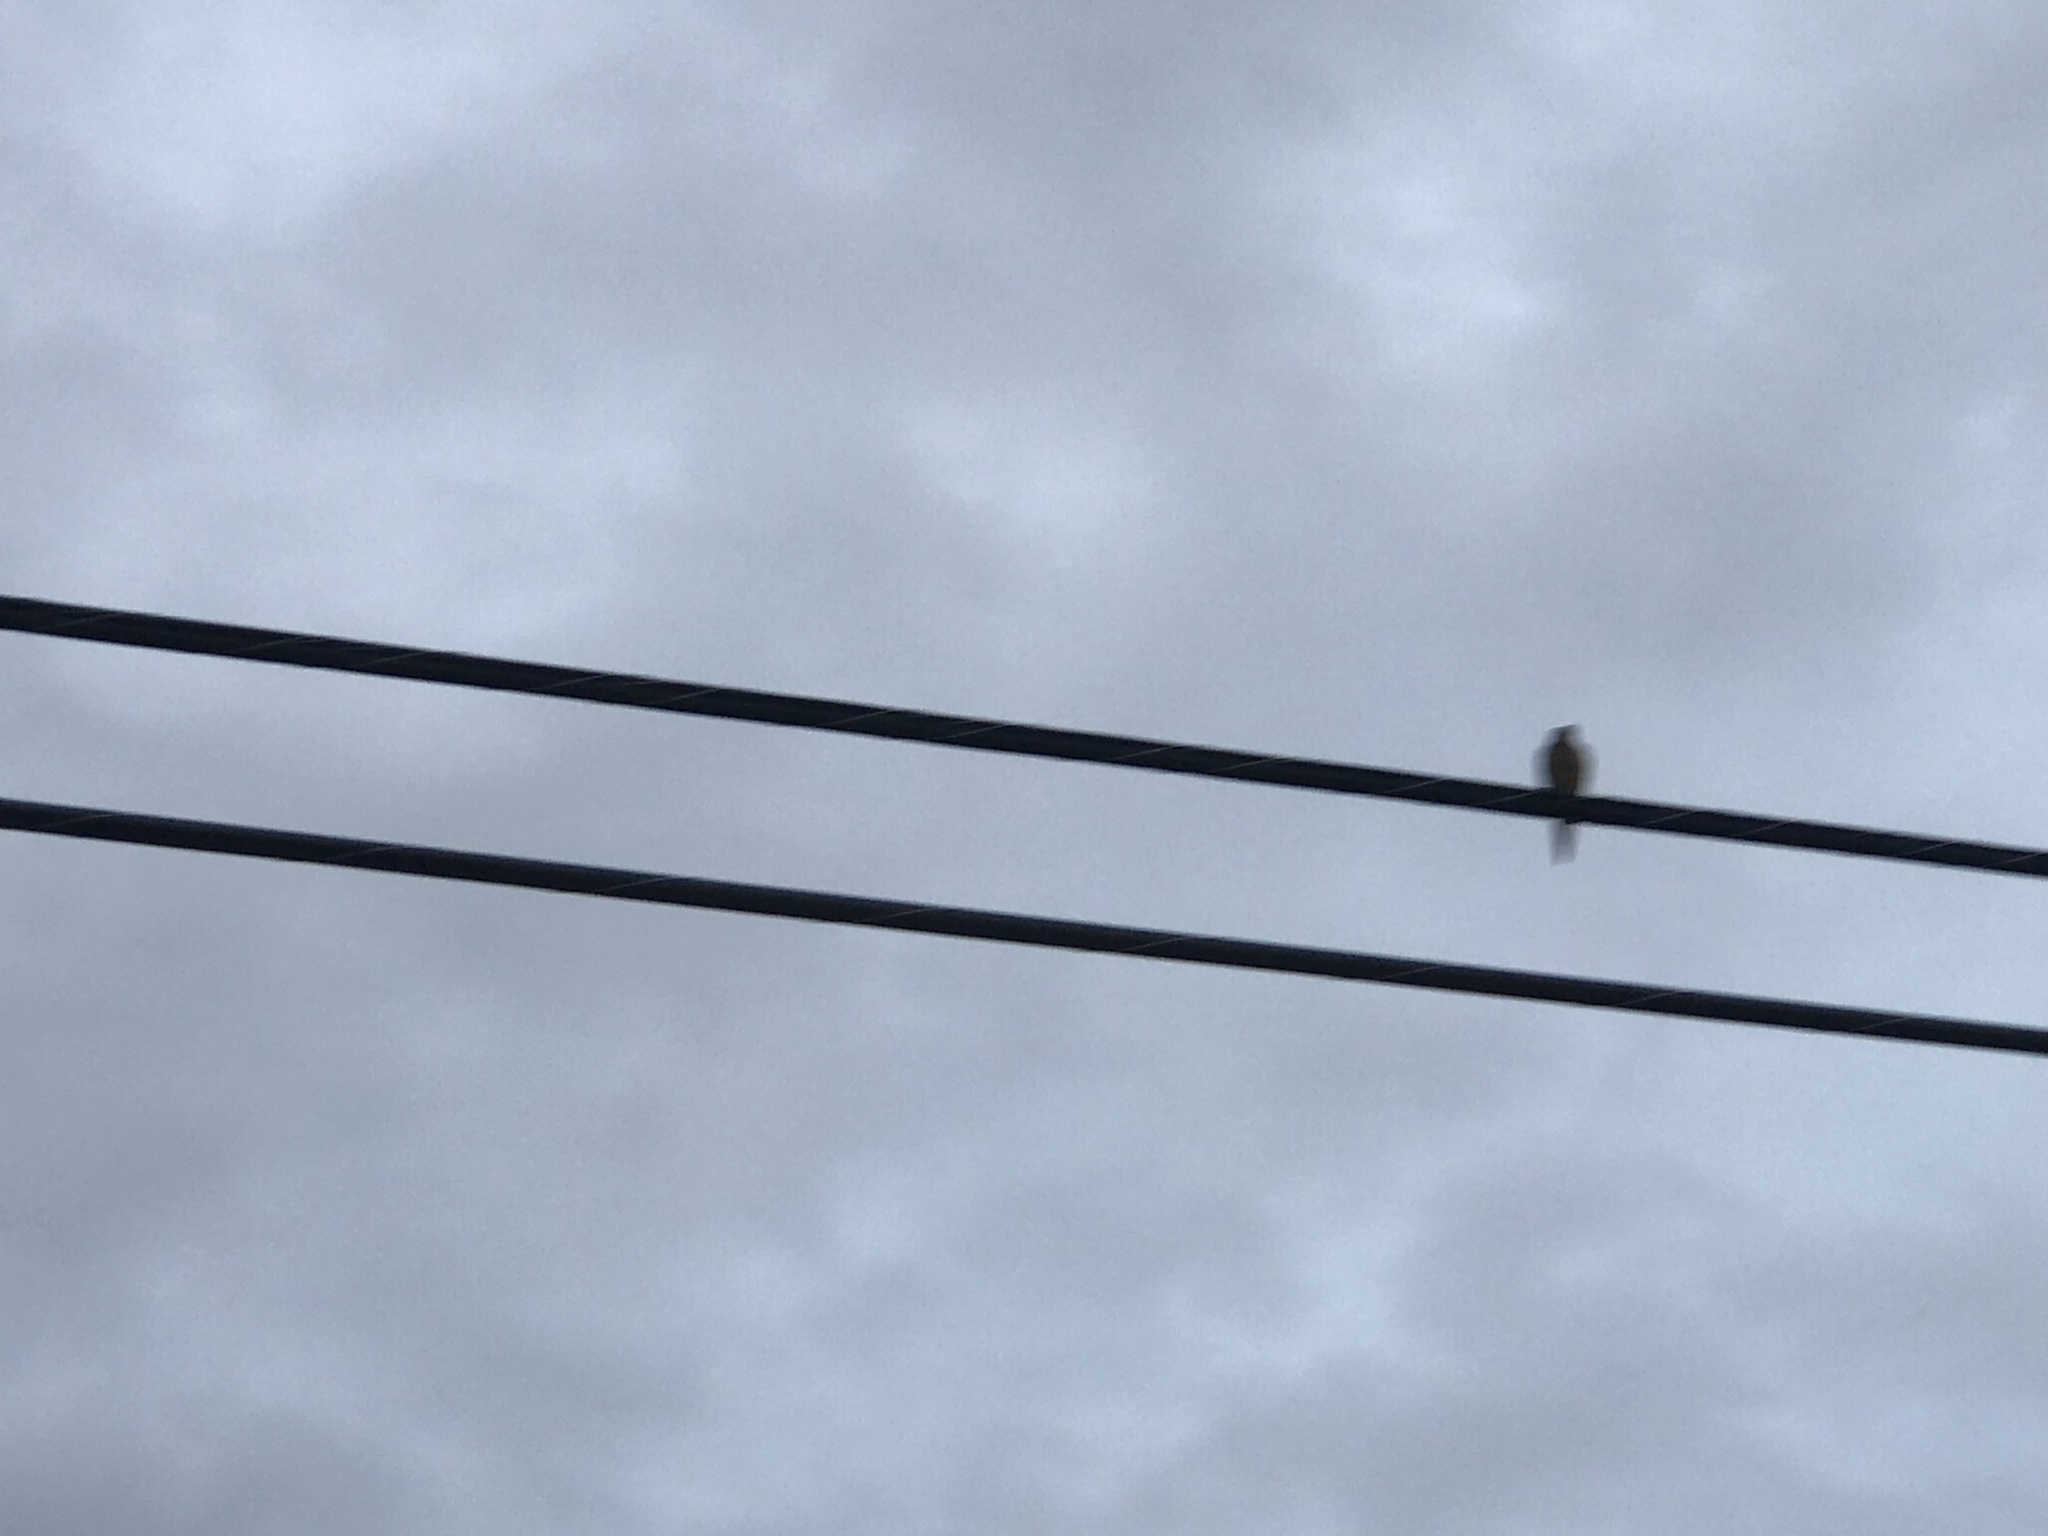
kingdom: Animalia
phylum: Chordata
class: Aves
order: Columbiformes
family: Columbidae
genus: Zenaida
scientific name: Zenaida macroura
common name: Mourning dove
